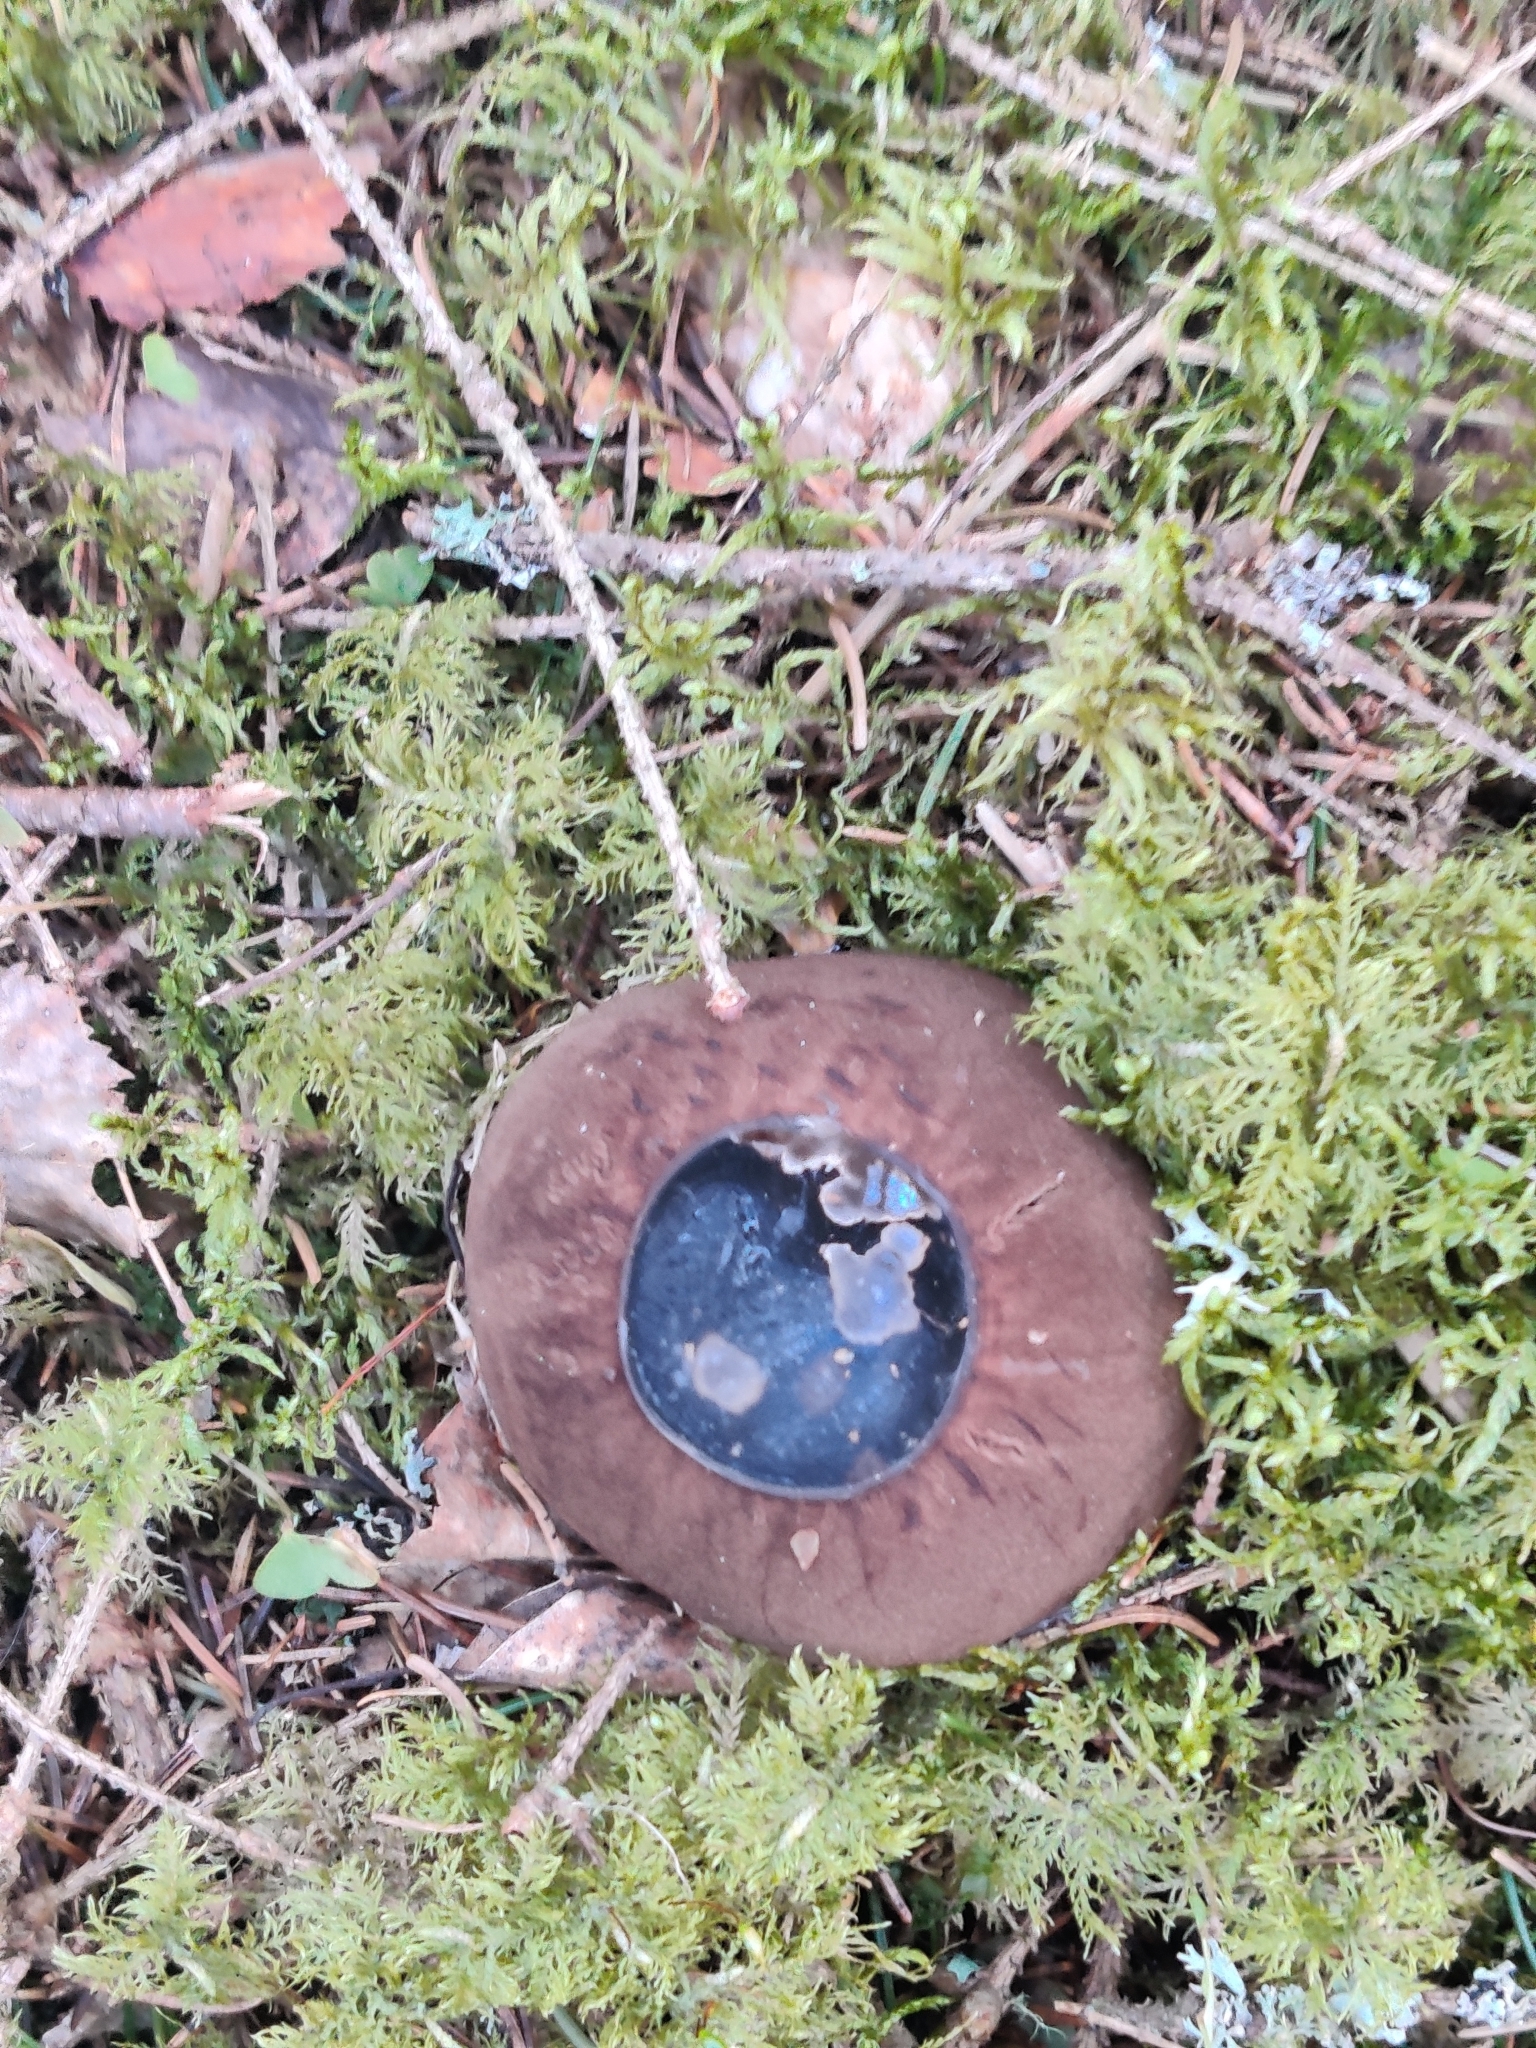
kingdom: Fungi
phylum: Ascomycota
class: Pezizomycetes
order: Pezizales
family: Sarcosomataceae
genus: Sarcosoma
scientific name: Sarcosoma globosum
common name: Charred-pancake cup
